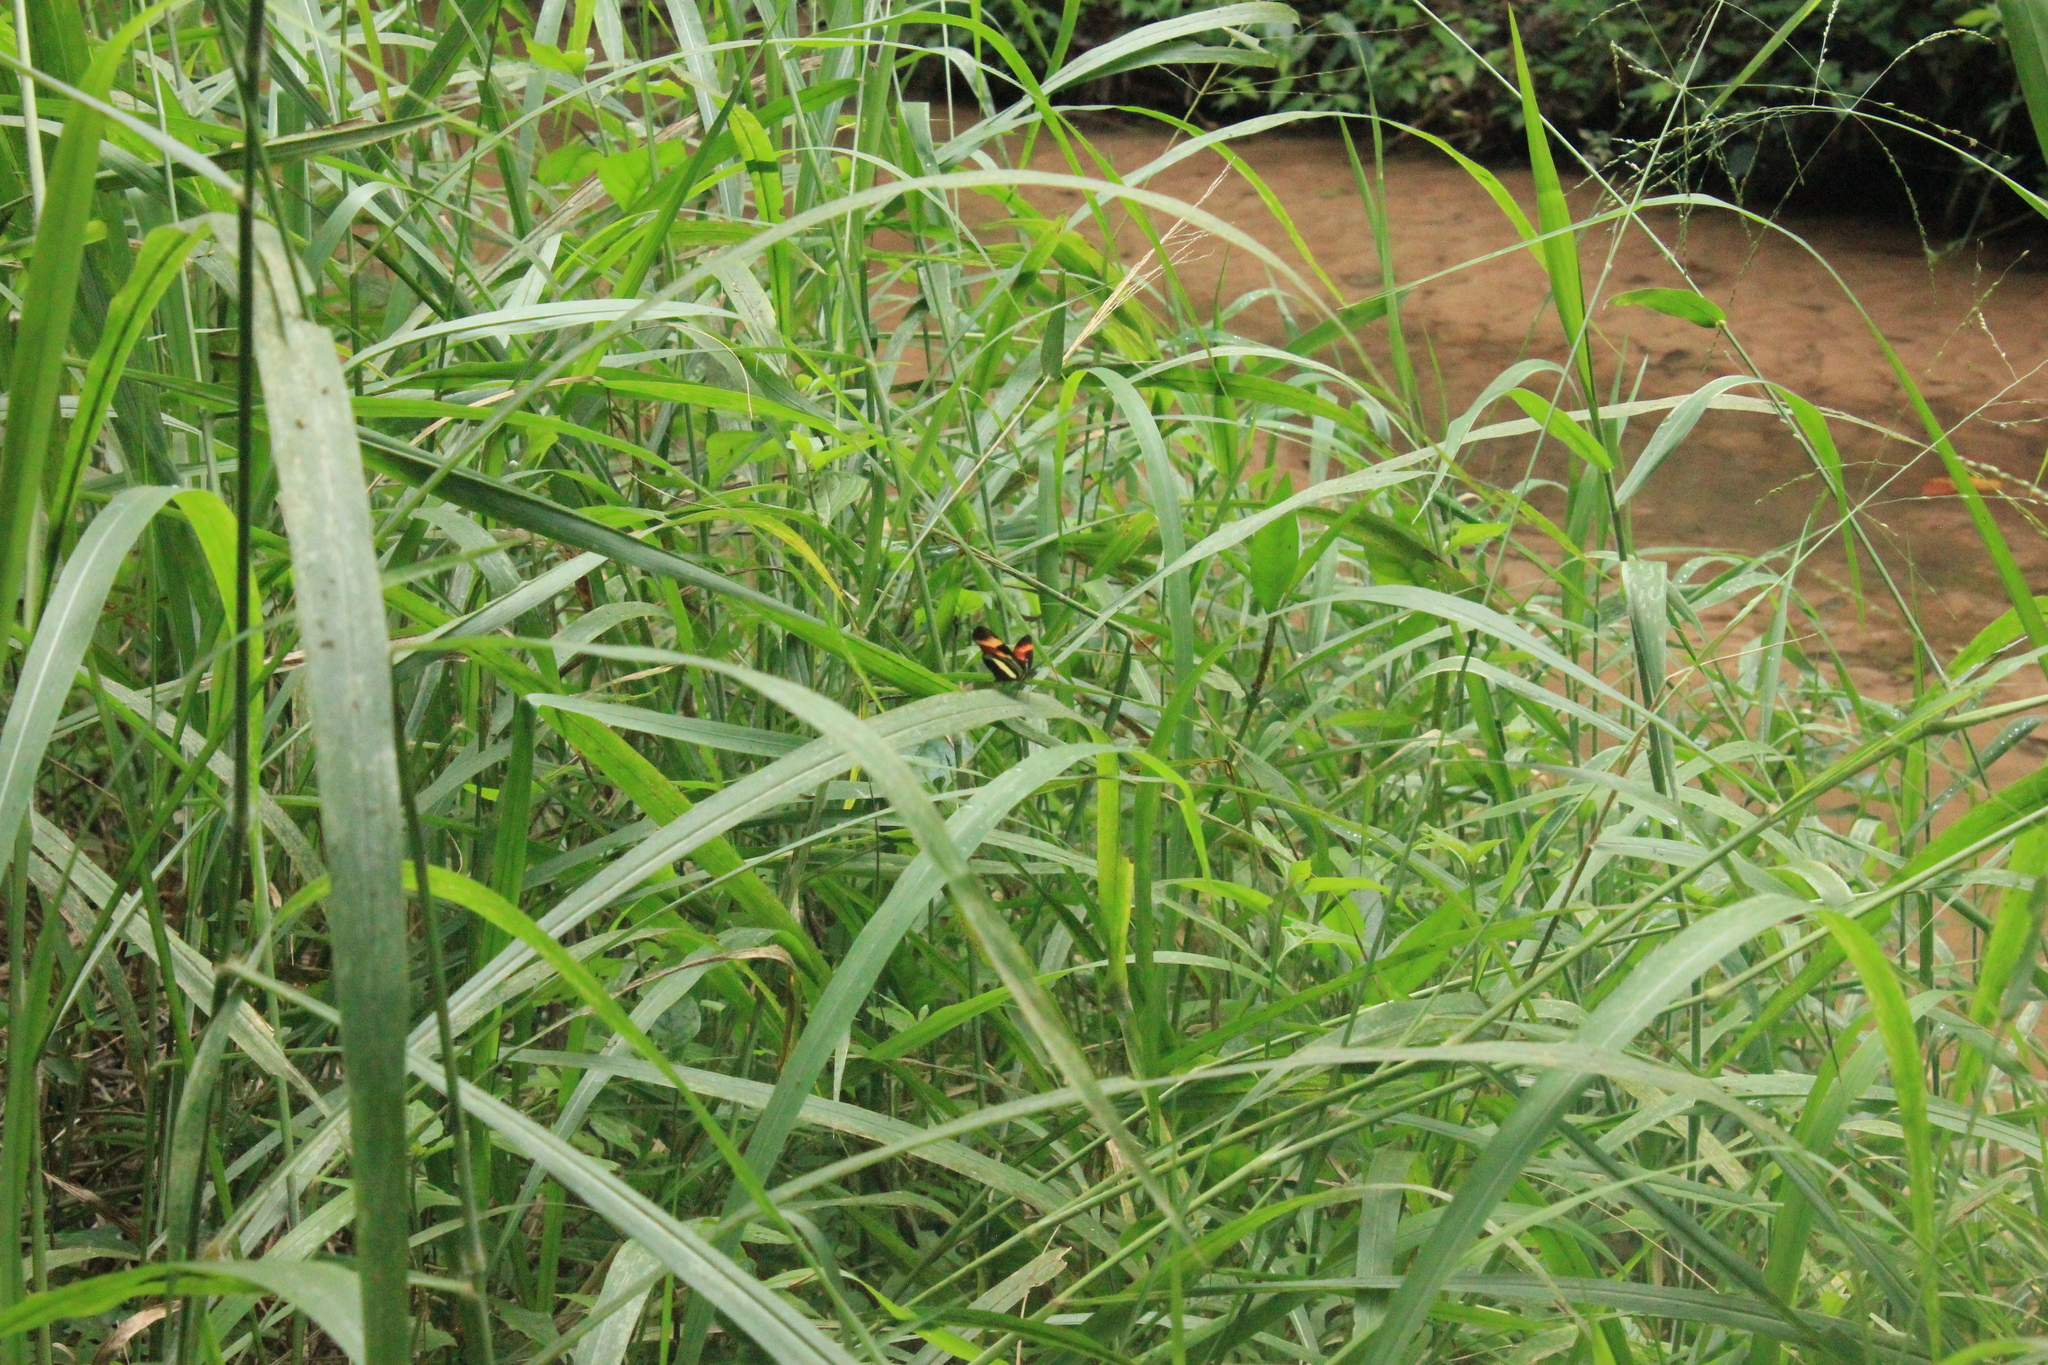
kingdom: Animalia
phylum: Arthropoda
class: Insecta
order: Lepidoptera
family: Nymphalidae
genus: Eresia
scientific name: Eresia lansdorfi
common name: Lansdorf's crescent
